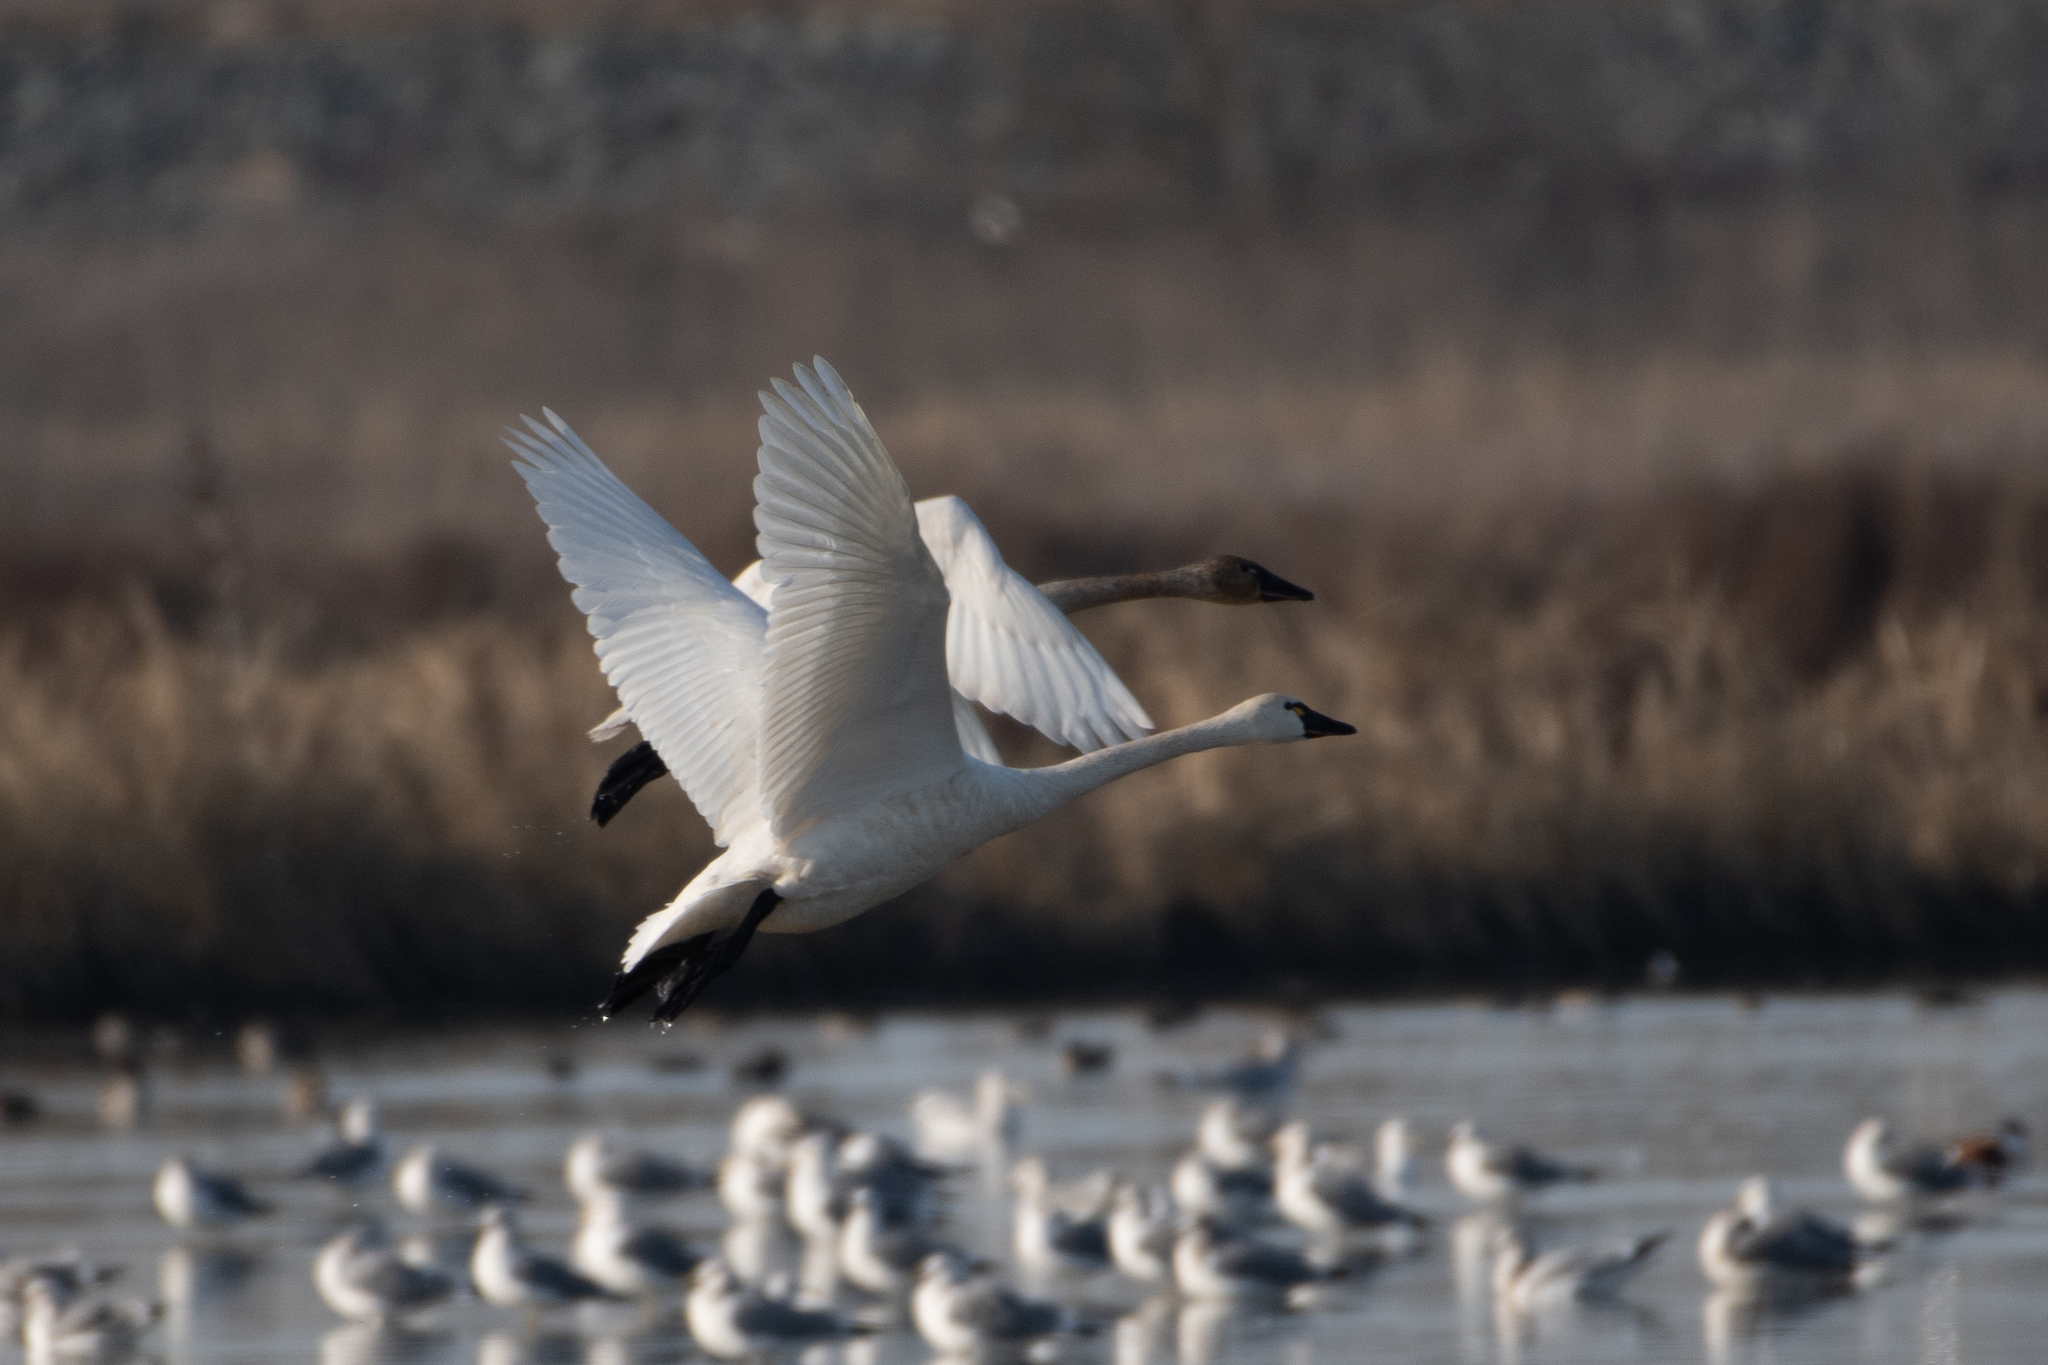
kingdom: Animalia
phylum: Chordata
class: Aves
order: Anseriformes
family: Anatidae
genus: Cygnus
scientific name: Cygnus columbianus
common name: Tundra swan
